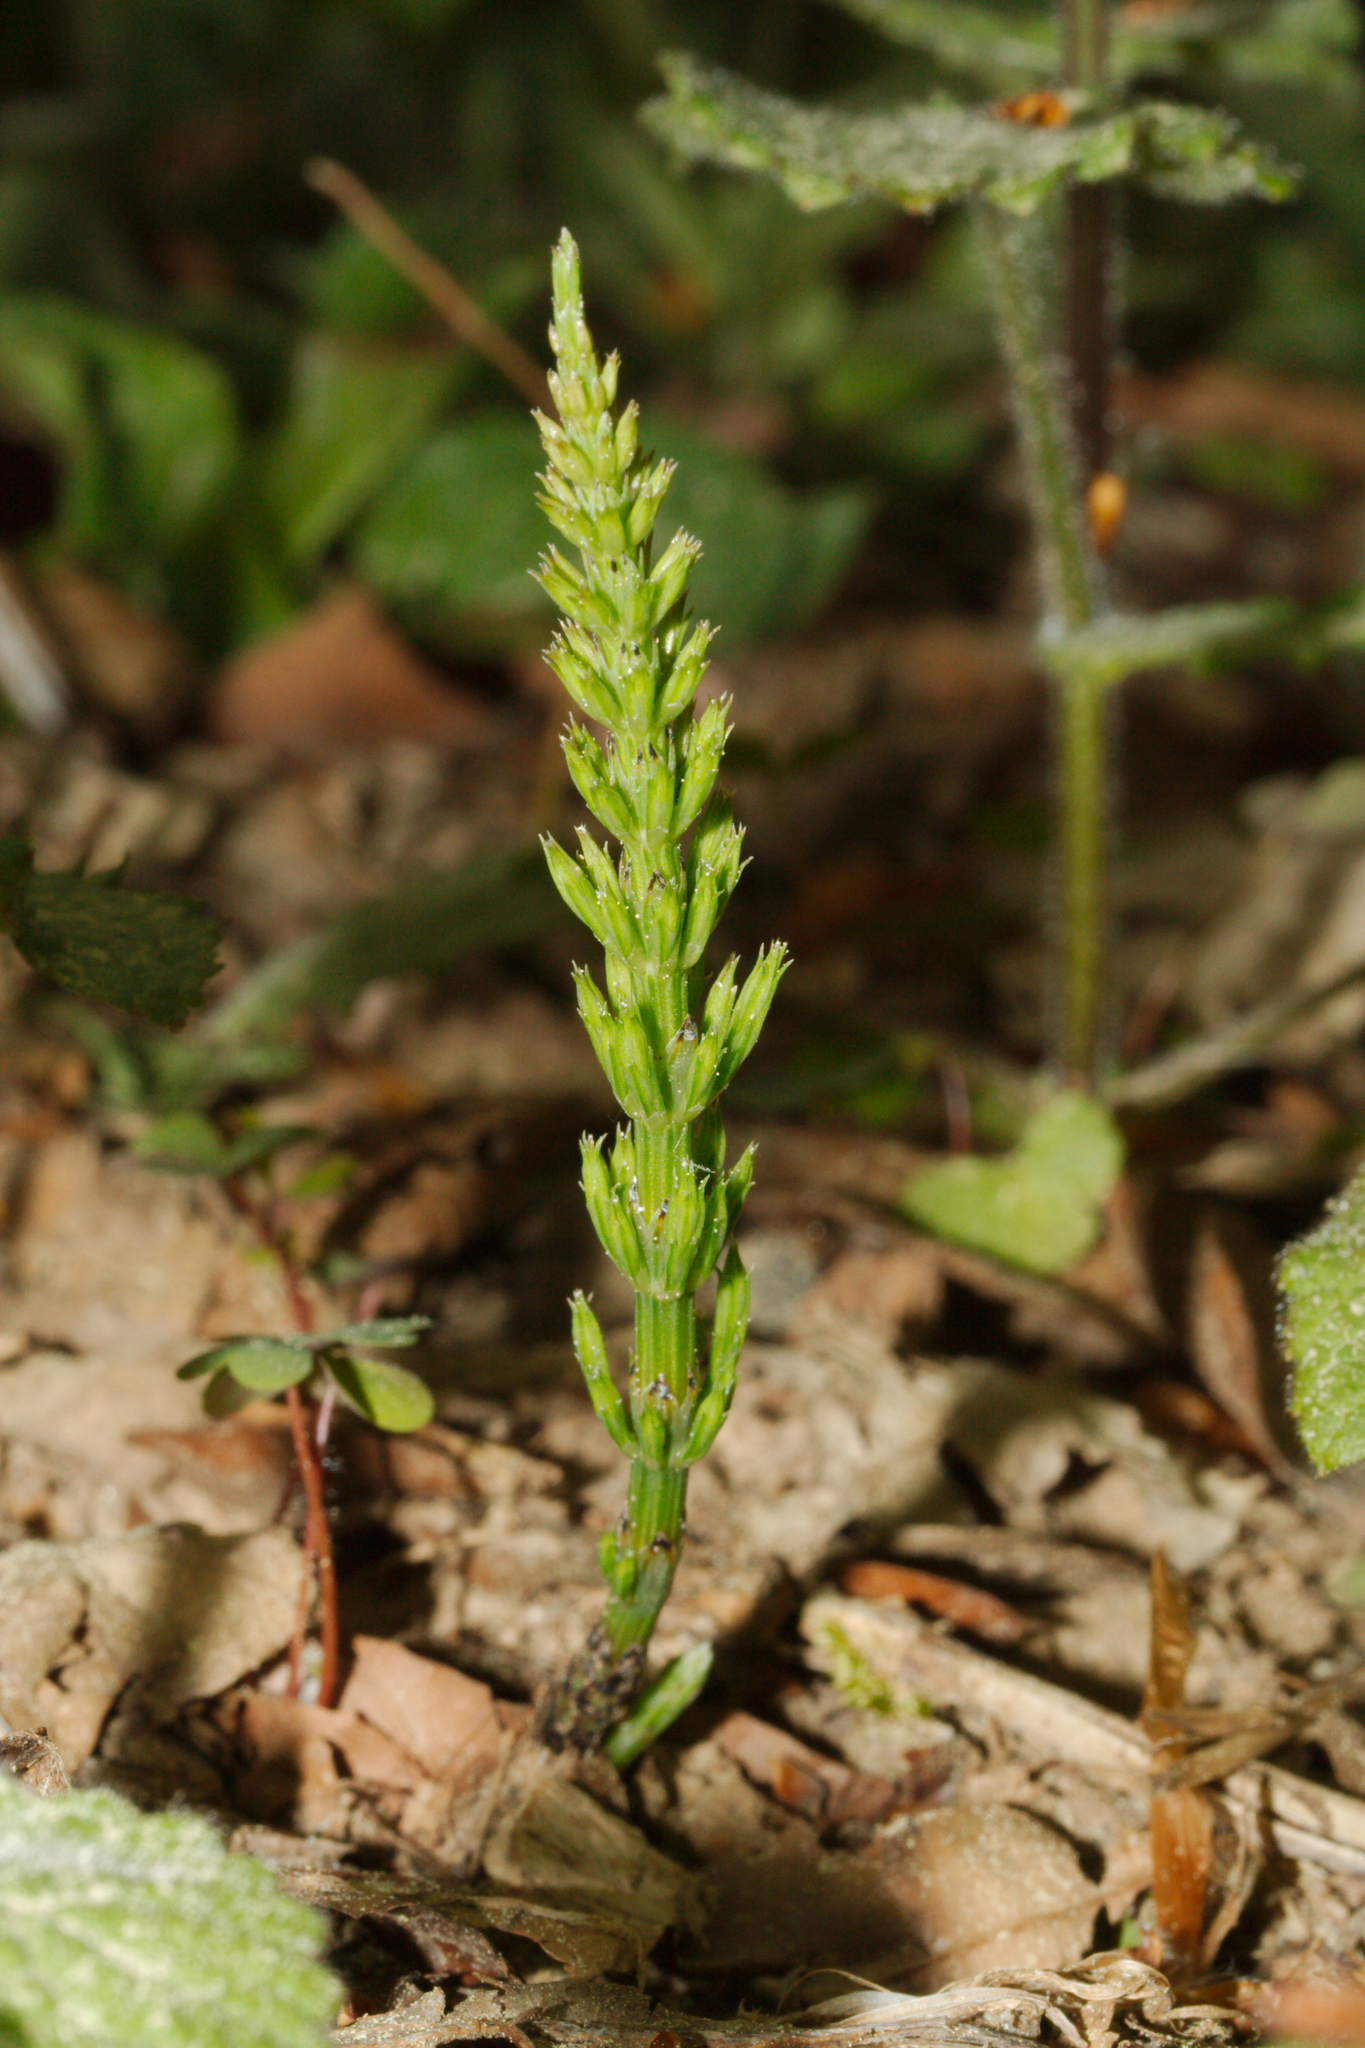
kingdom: Plantae
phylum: Tracheophyta
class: Polypodiopsida
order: Equisetales
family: Equisetaceae
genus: Equisetum
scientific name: Equisetum arvense
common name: Field horsetail
